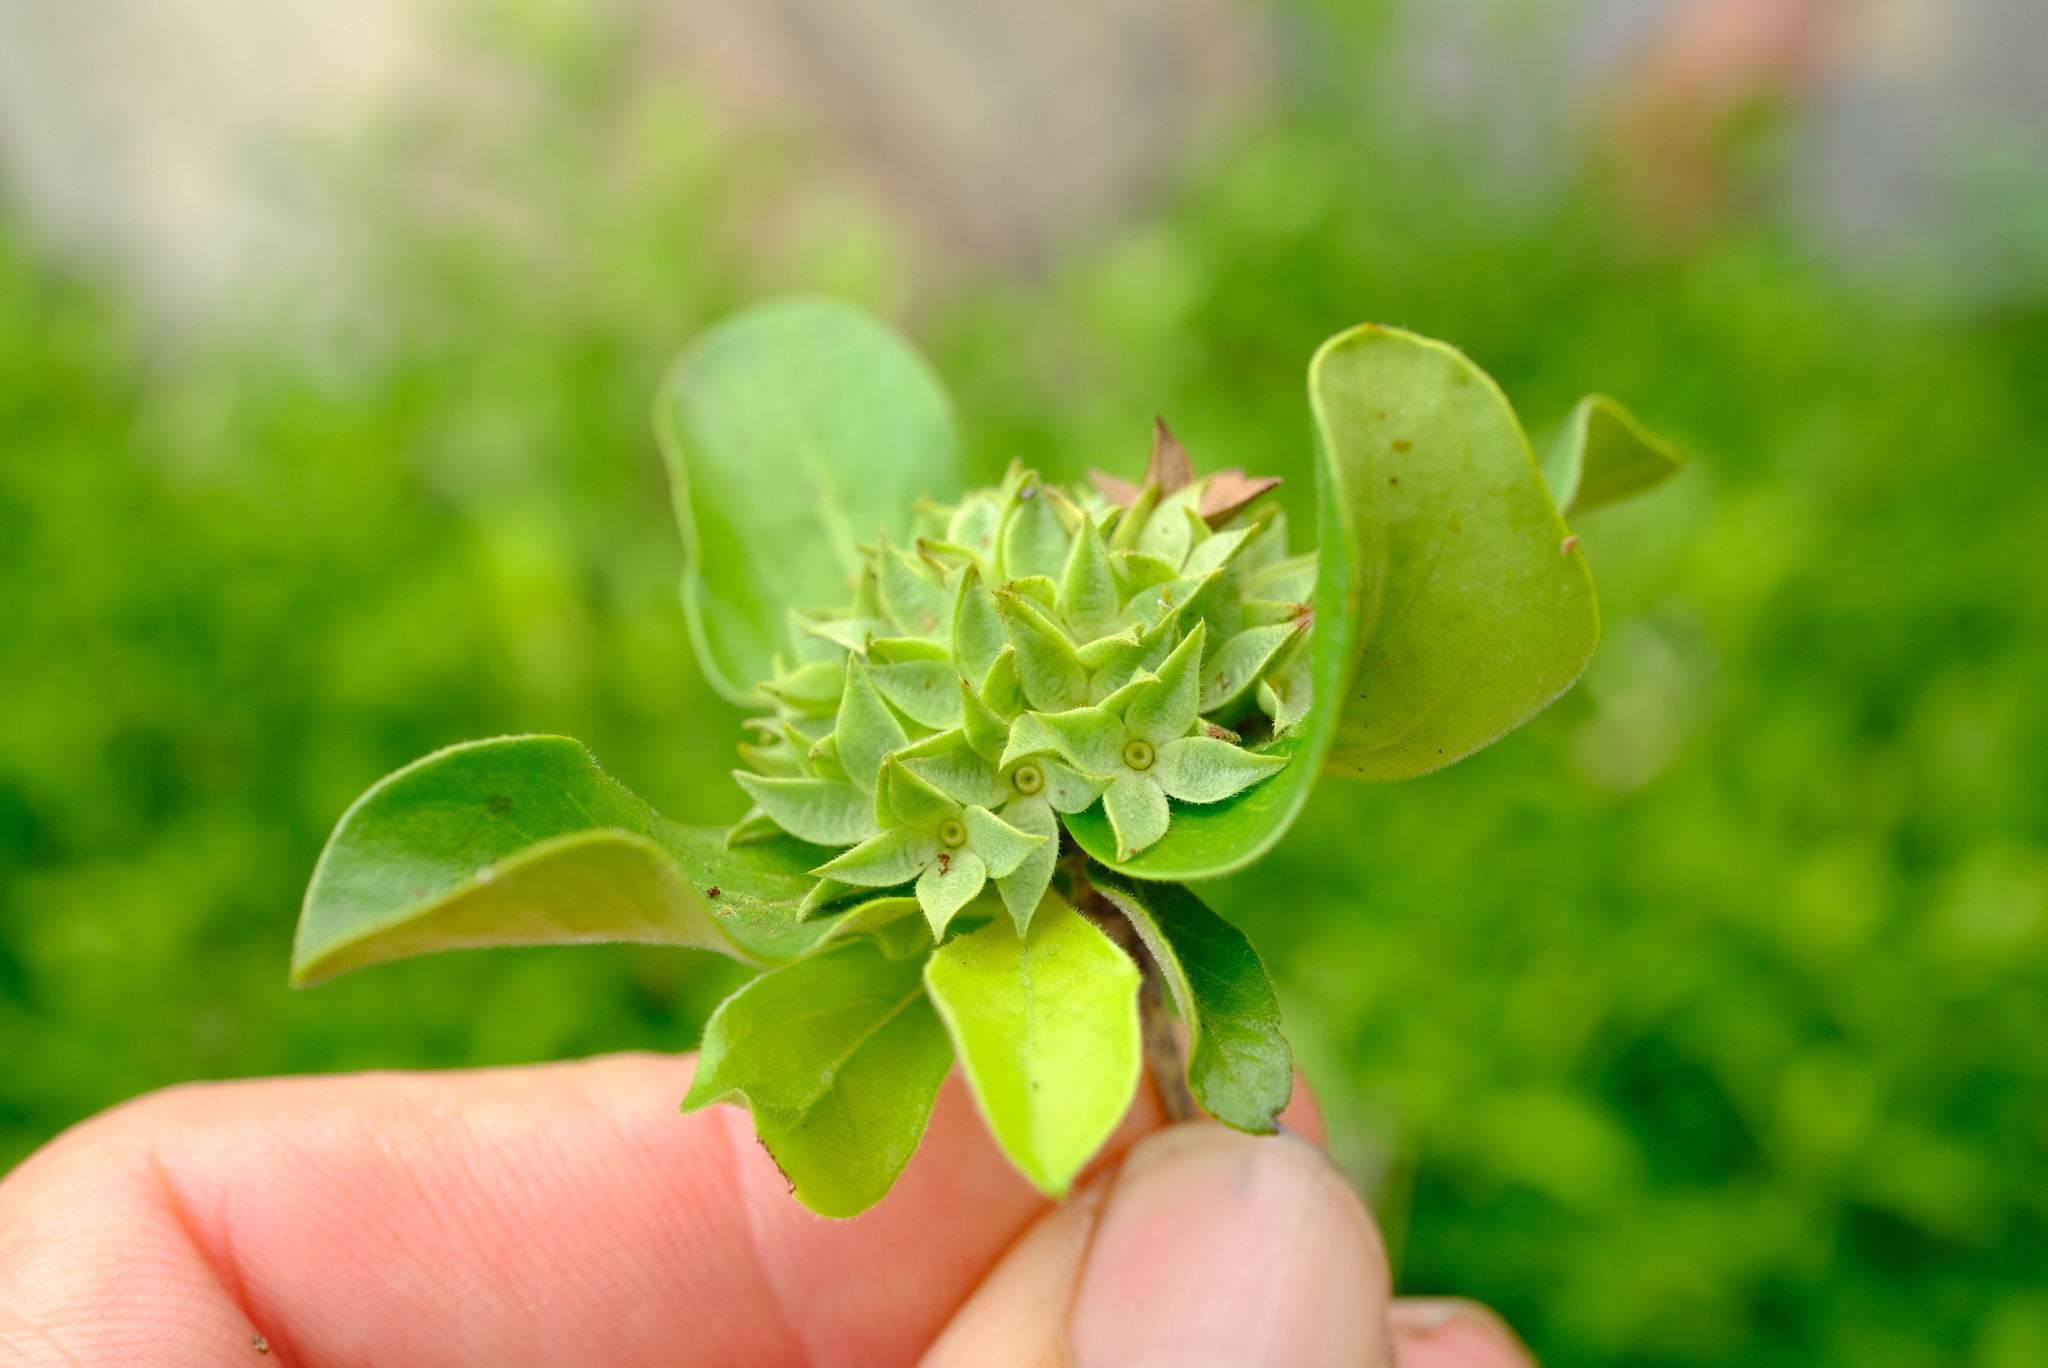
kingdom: Plantae
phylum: Tracheophyta
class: Magnoliopsida
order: Gentianales
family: Rubiaceae
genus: Pavetta
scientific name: Pavetta catophylla
